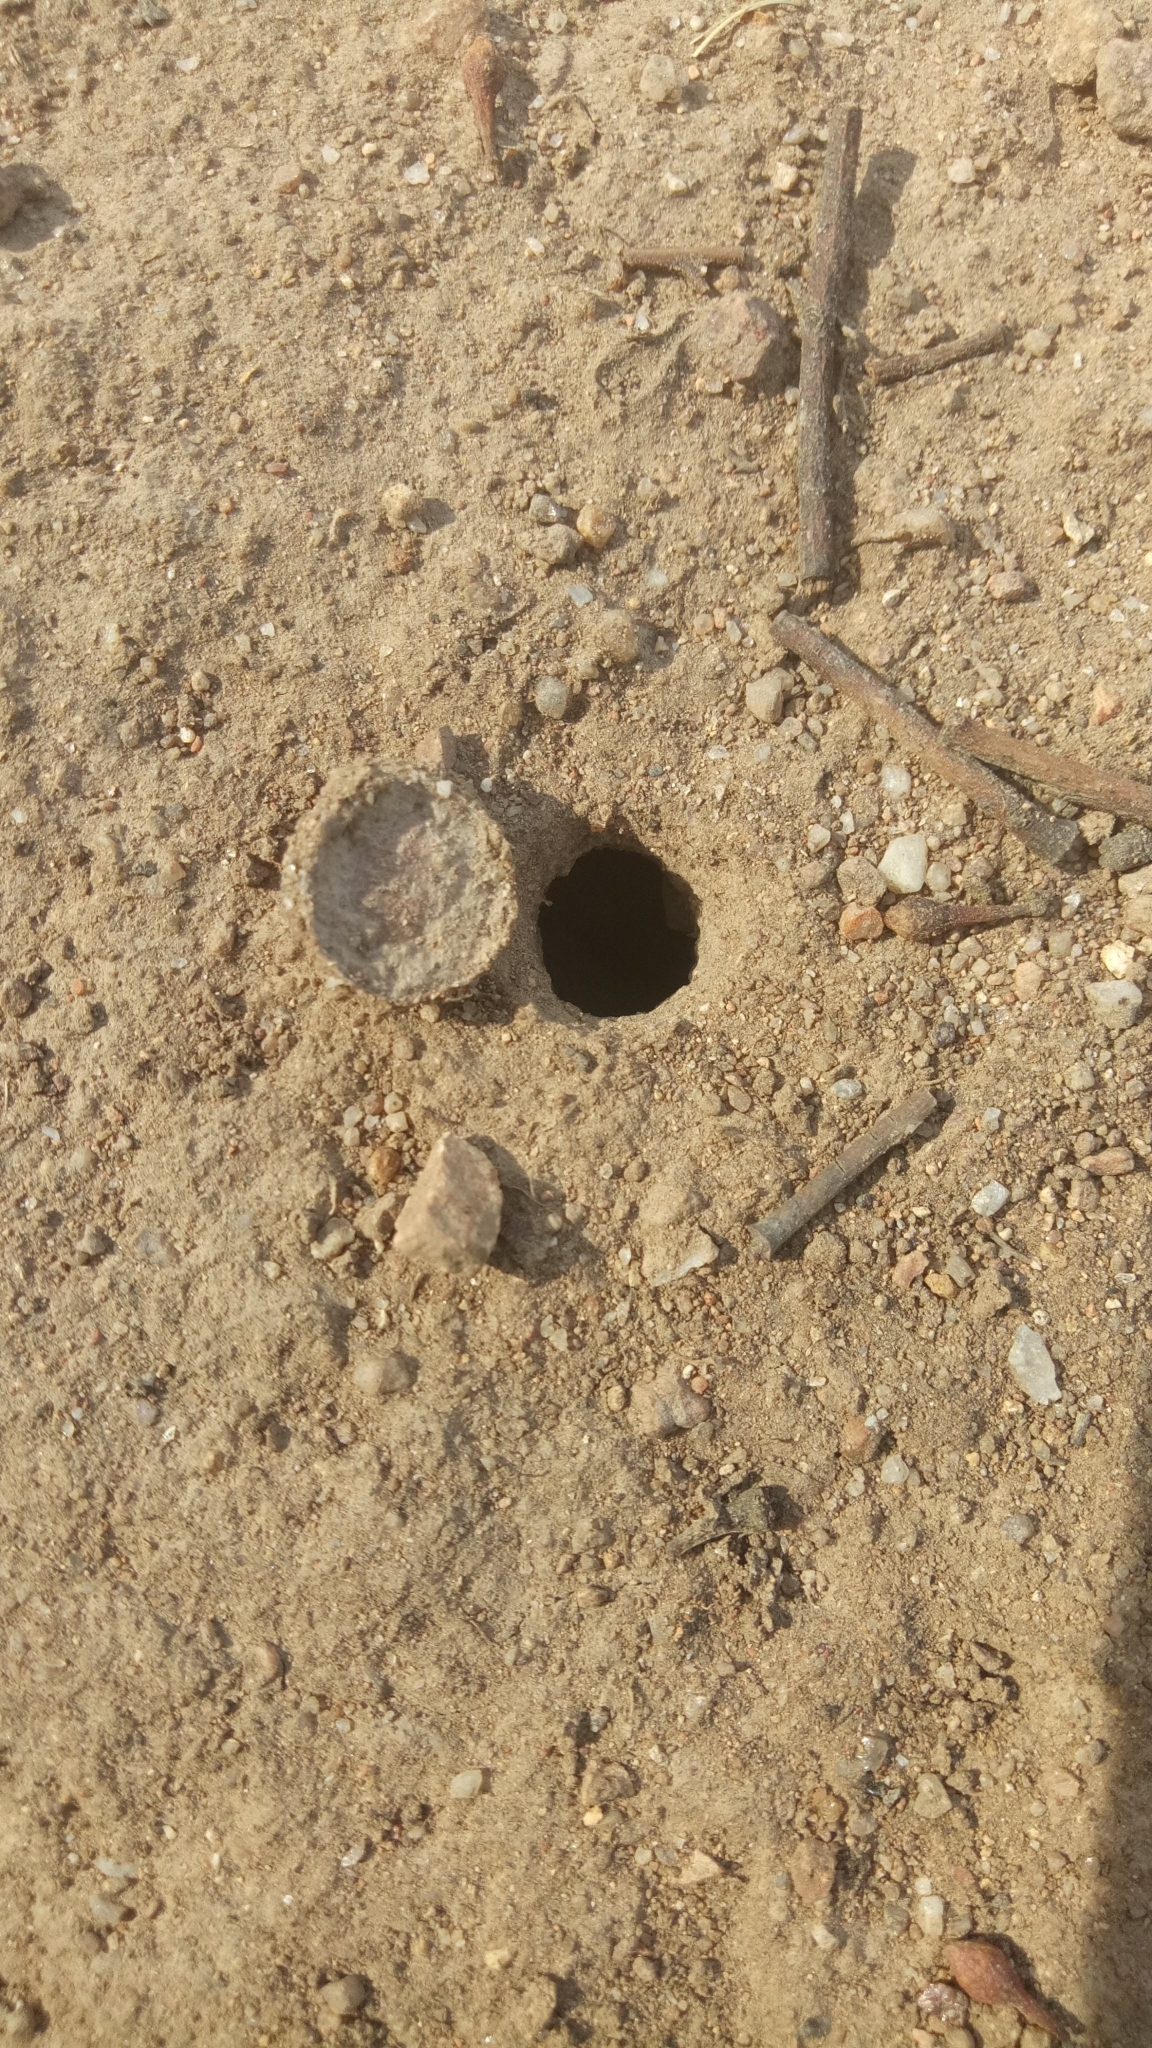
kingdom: Animalia
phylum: Arthropoda
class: Arachnida
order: Araneae
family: Lycosidae
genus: Portacosa
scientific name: Portacosa cinerea
